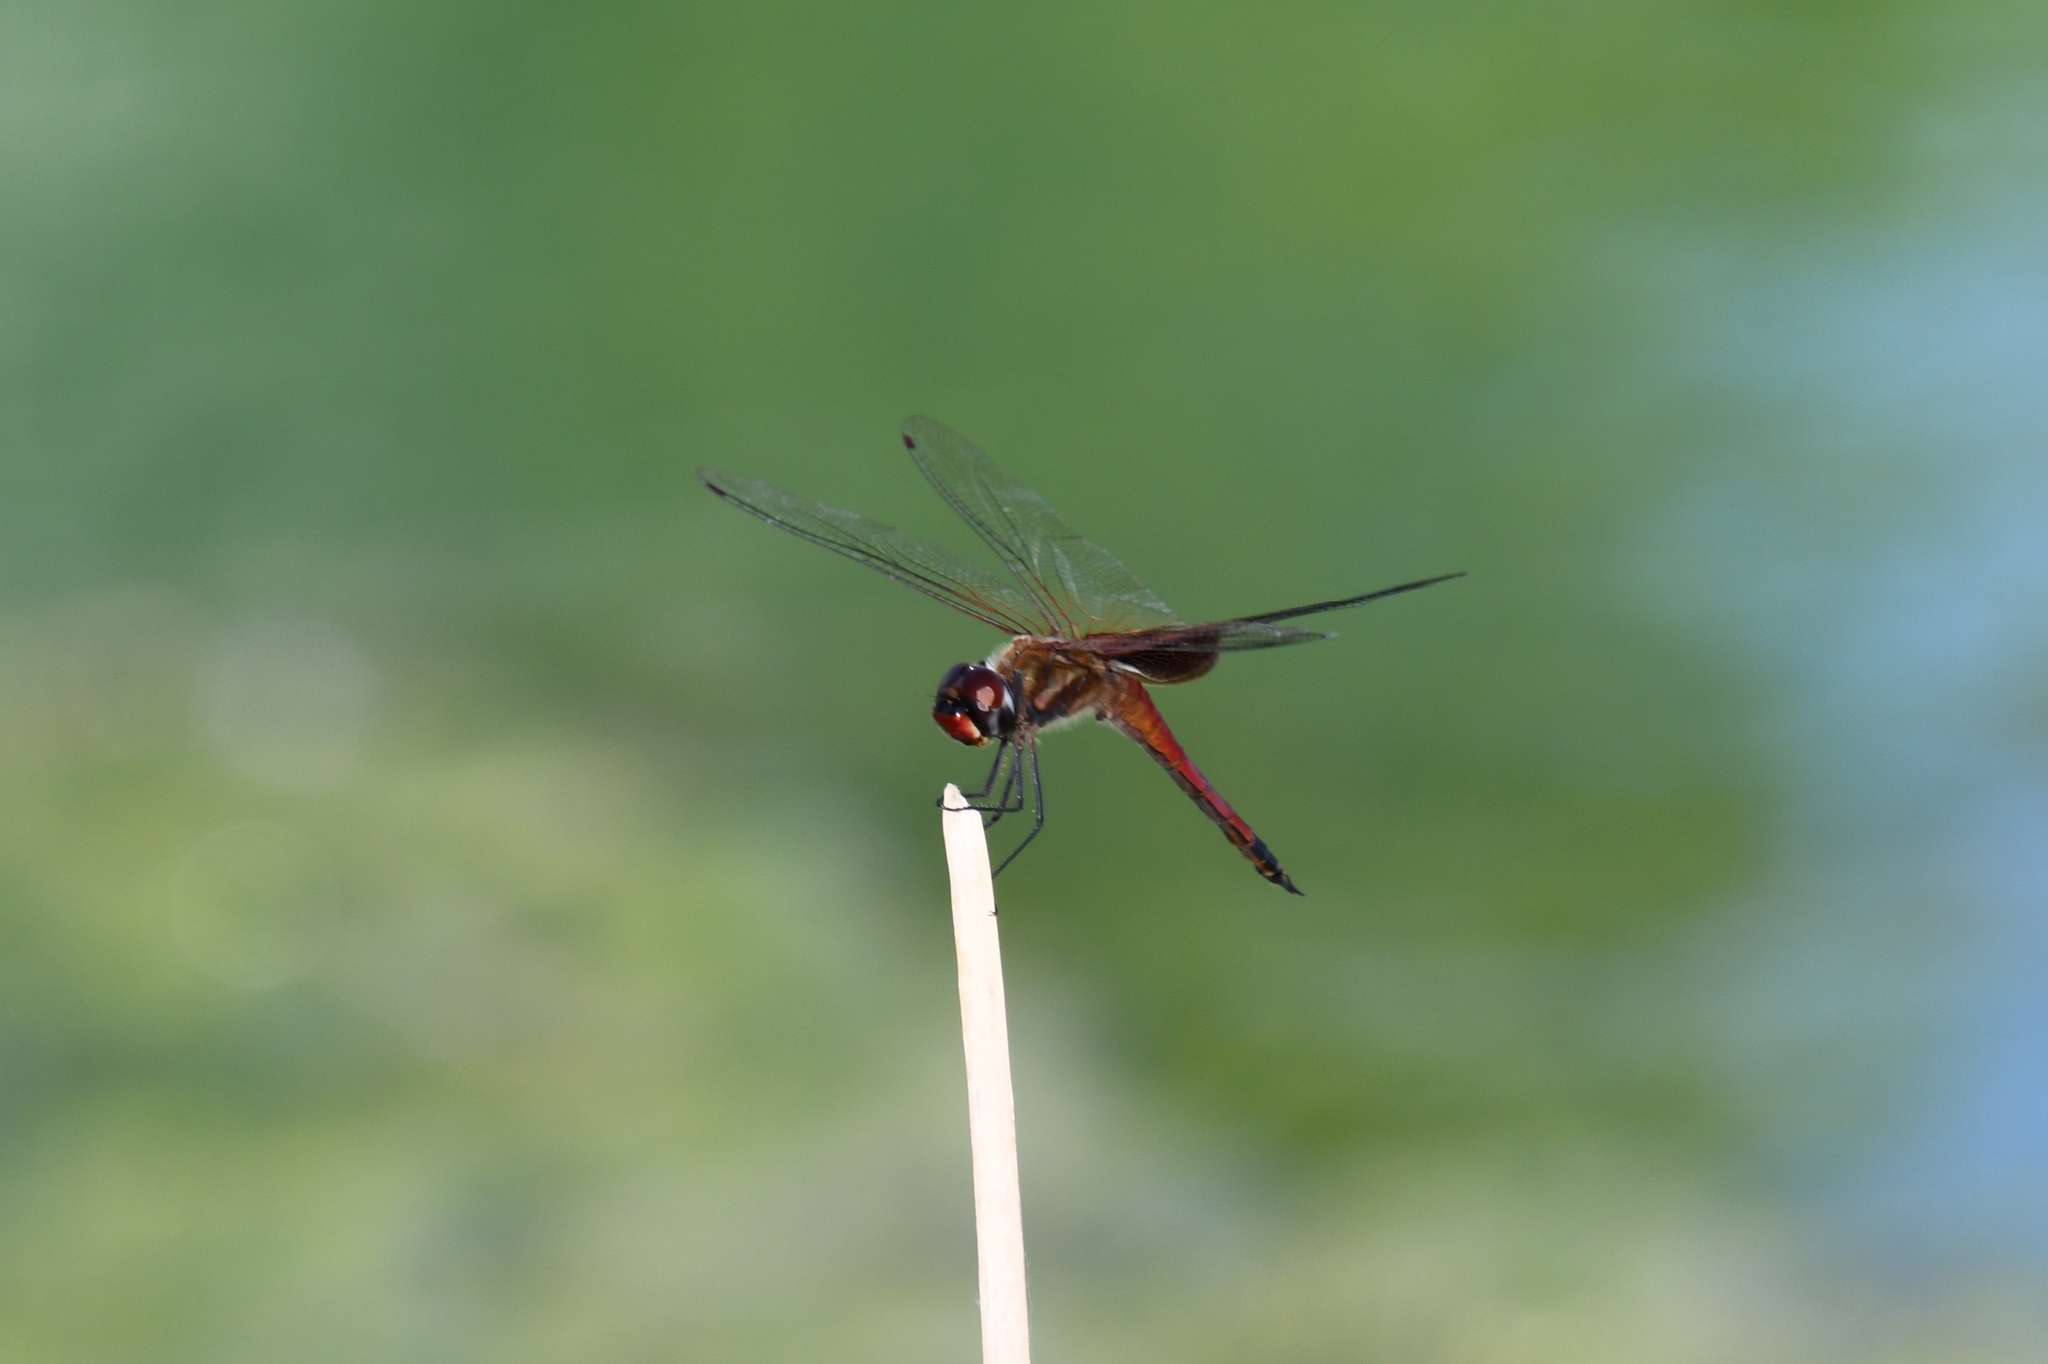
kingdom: Animalia
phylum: Arthropoda
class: Insecta
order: Odonata
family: Libellulidae
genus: Tramea
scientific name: Tramea darwini
